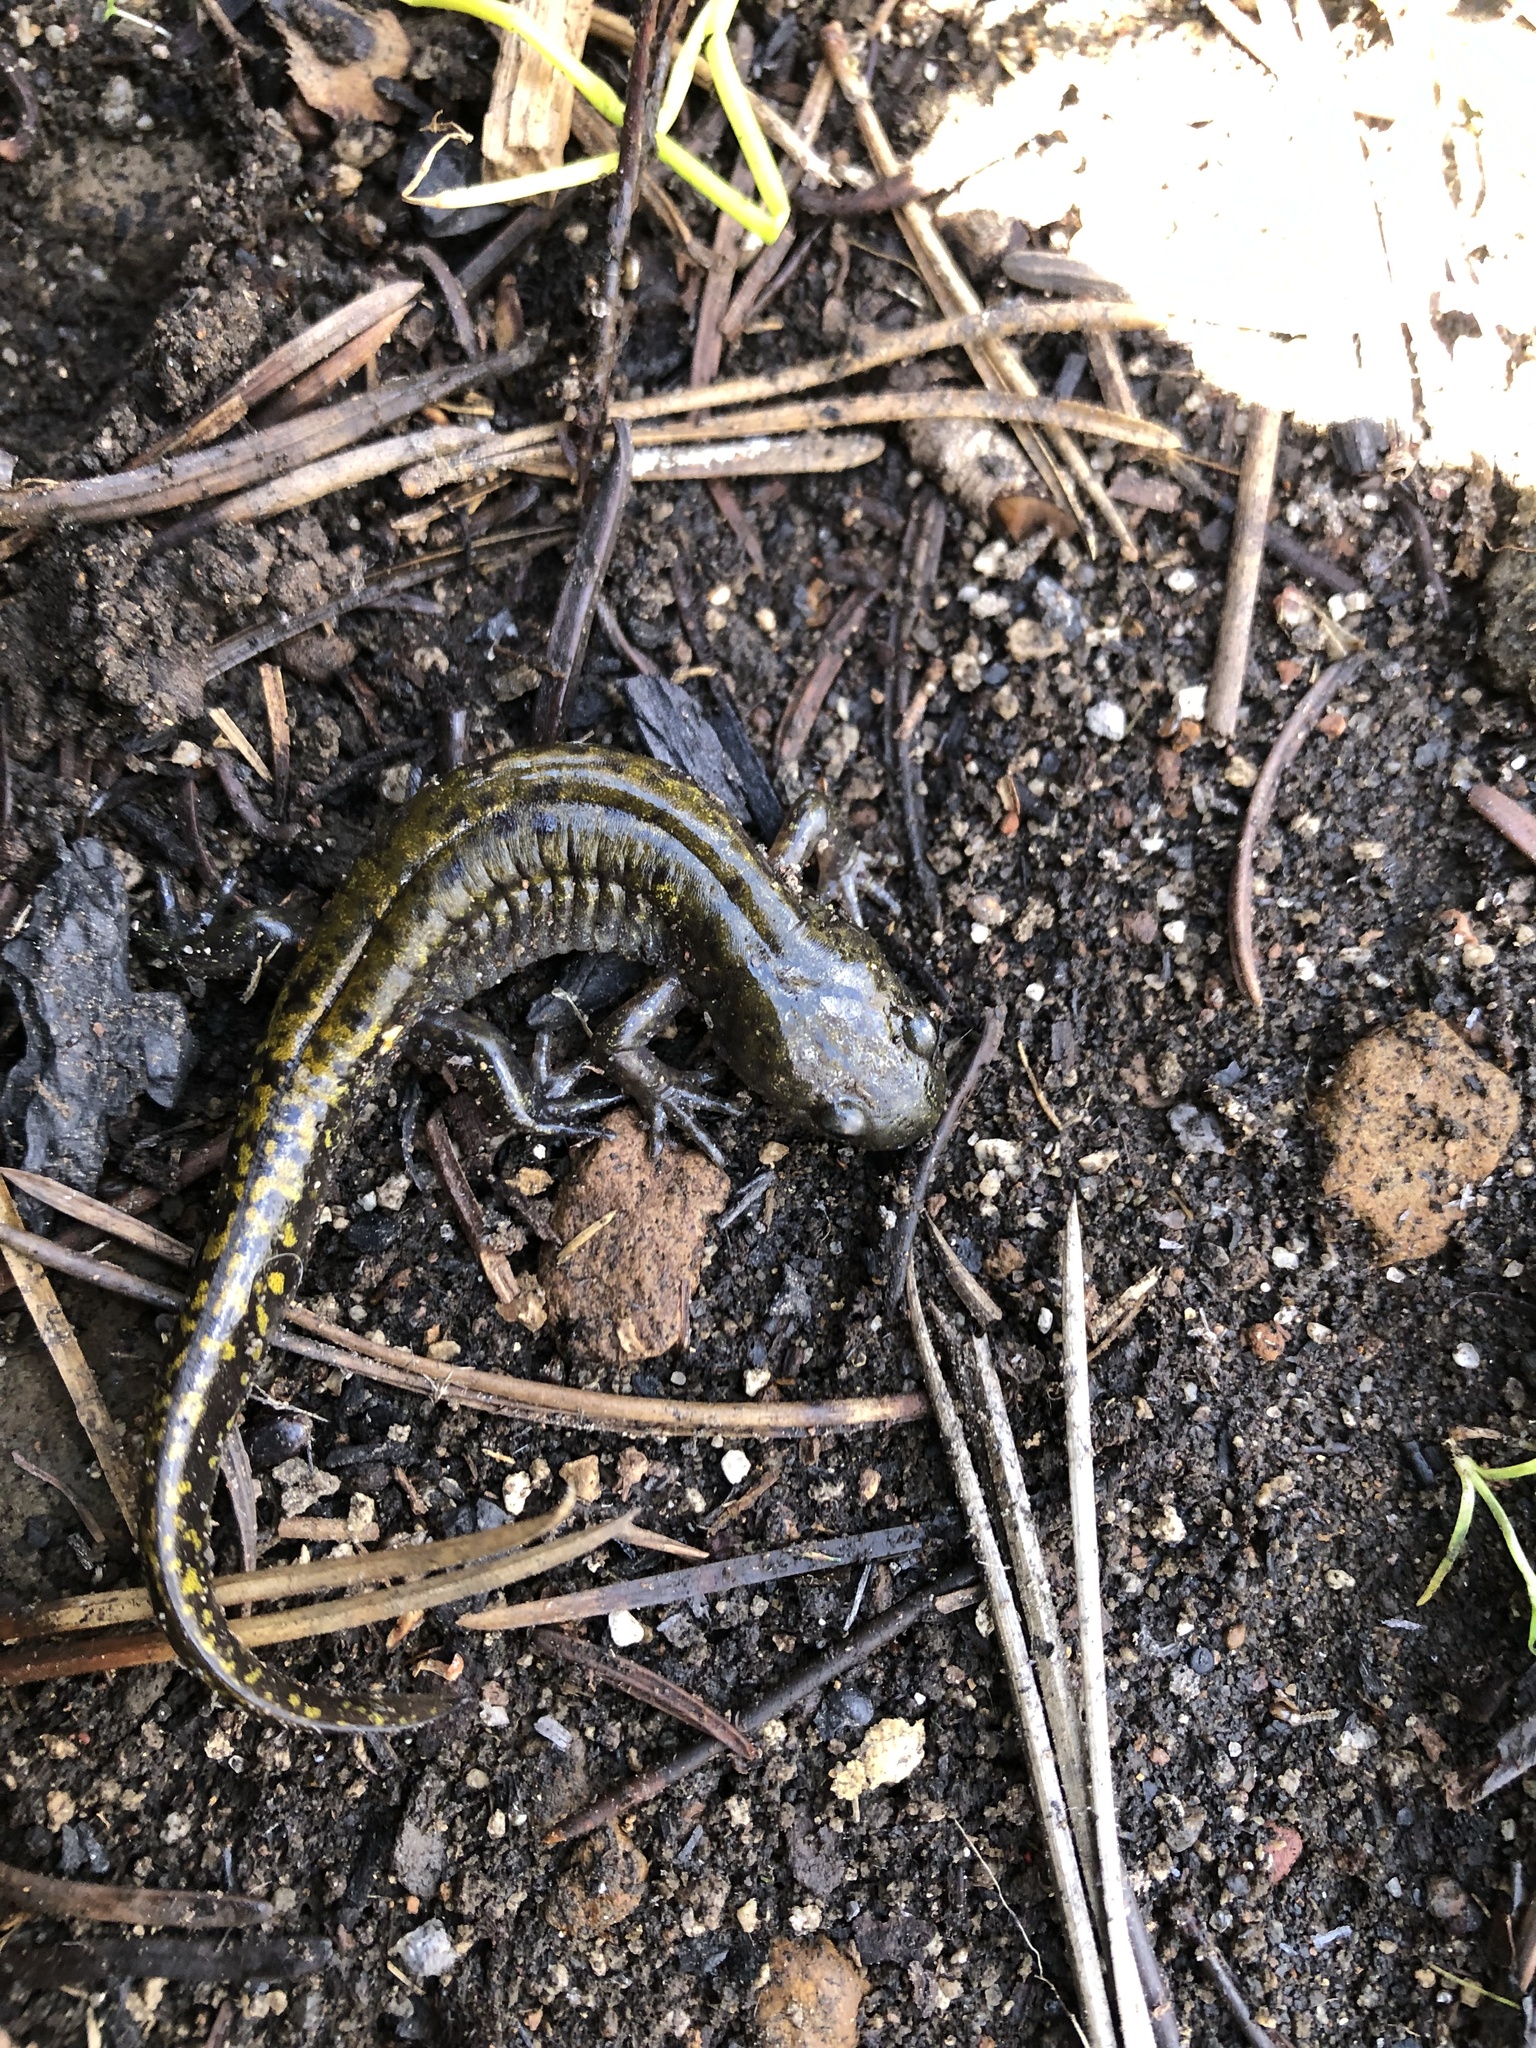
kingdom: Animalia
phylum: Chordata
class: Amphibia
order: Caudata
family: Ambystomatidae
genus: Ambystoma
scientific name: Ambystoma macrodactylum
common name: Long-toed salamander
